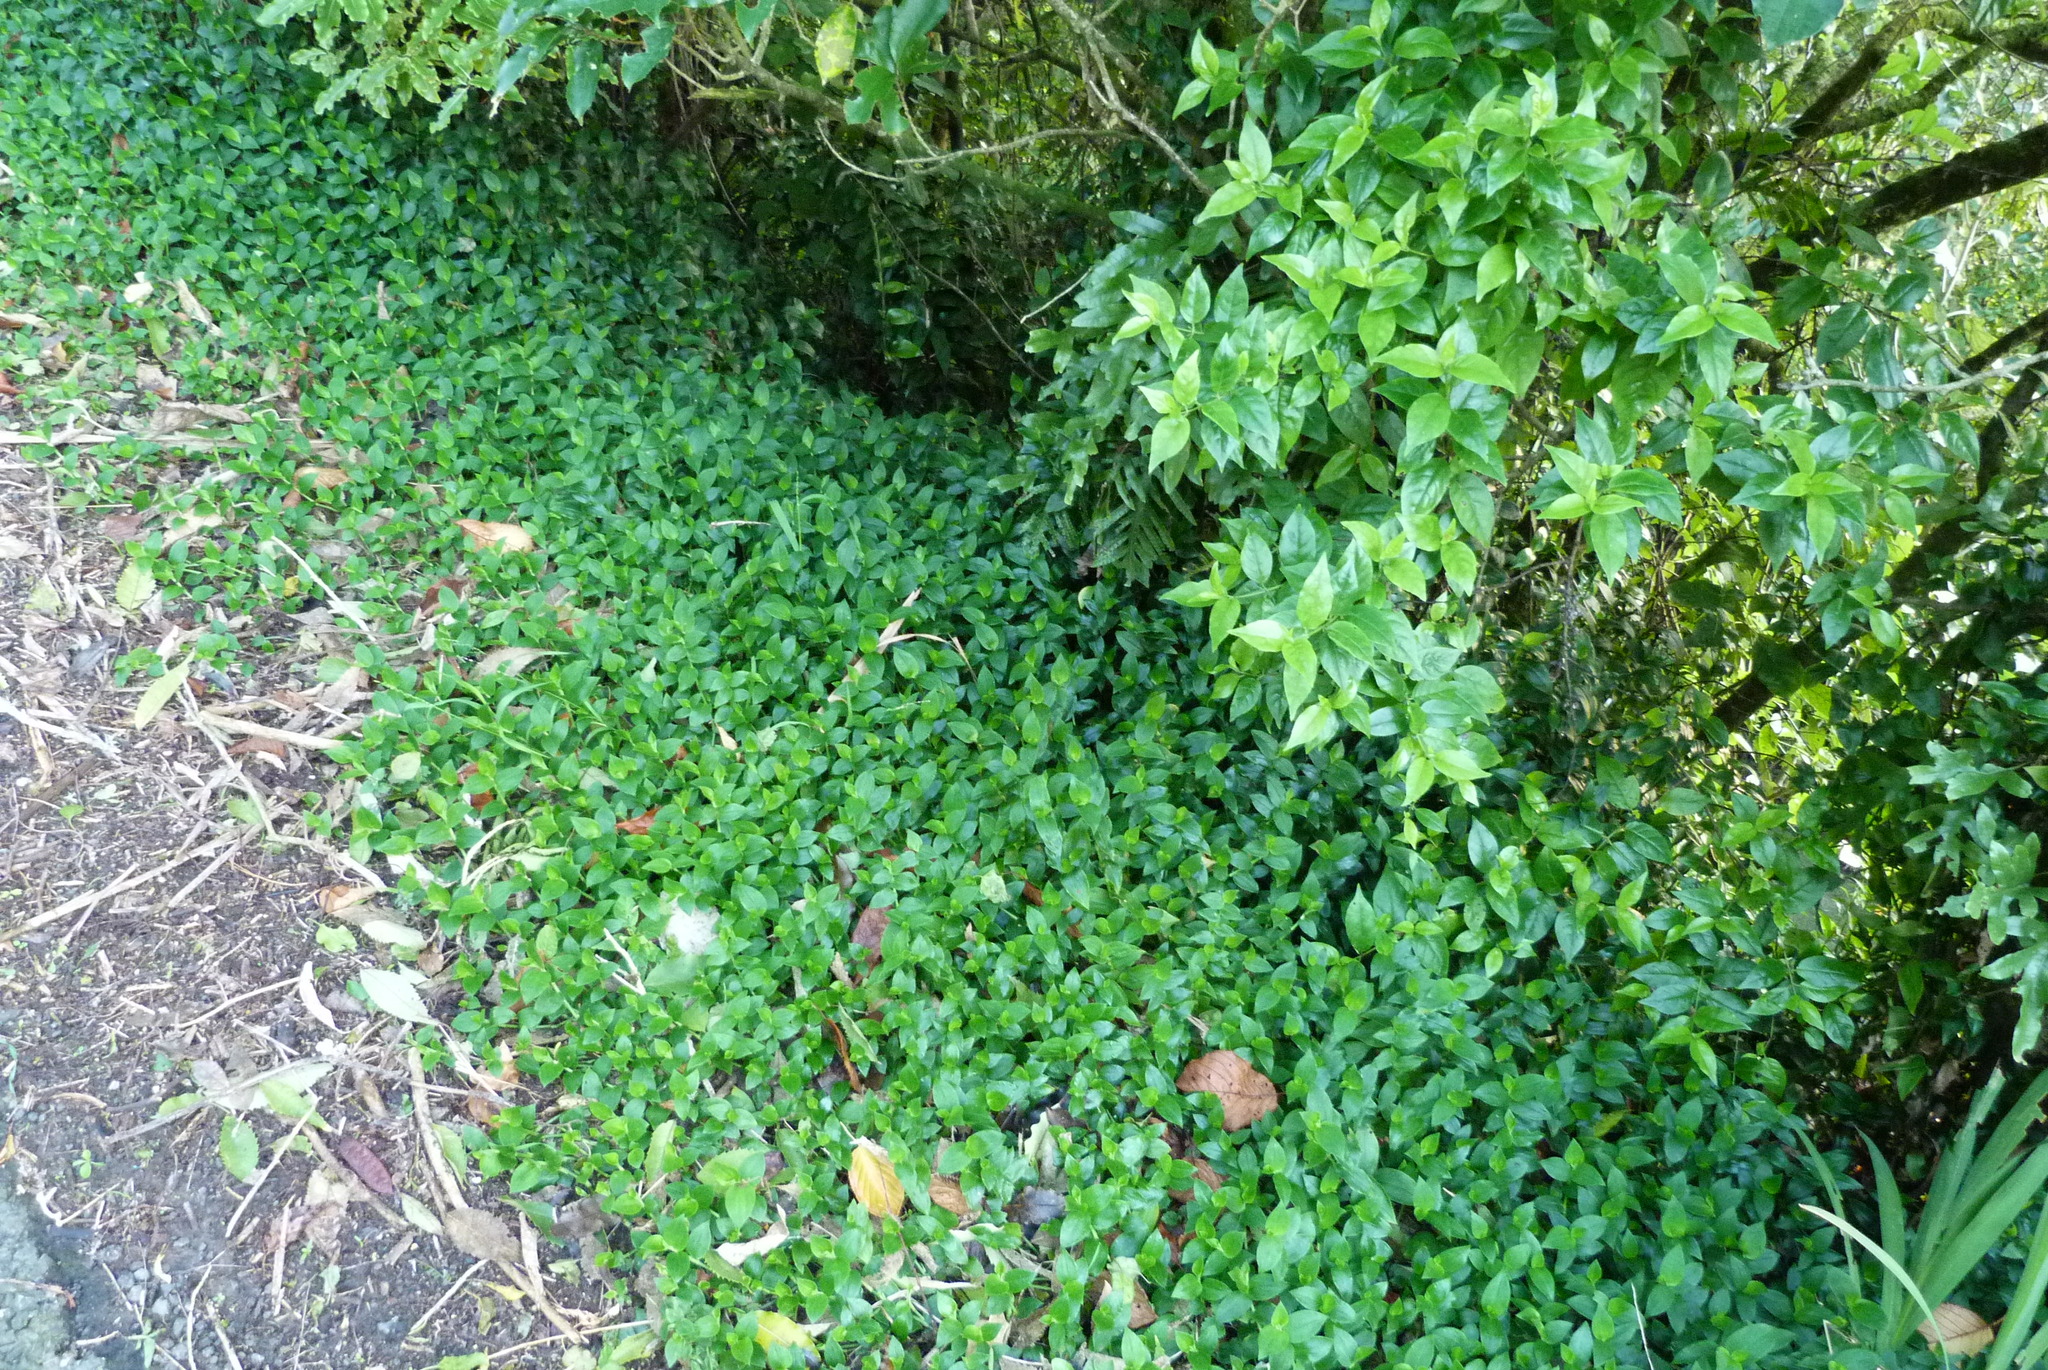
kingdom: Plantae
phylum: Tracheophyta
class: Liliopsida
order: Commelinales
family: Commelinaceae
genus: Tradescantia
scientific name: Tradescantia fluminensis
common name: Wandering-jew
